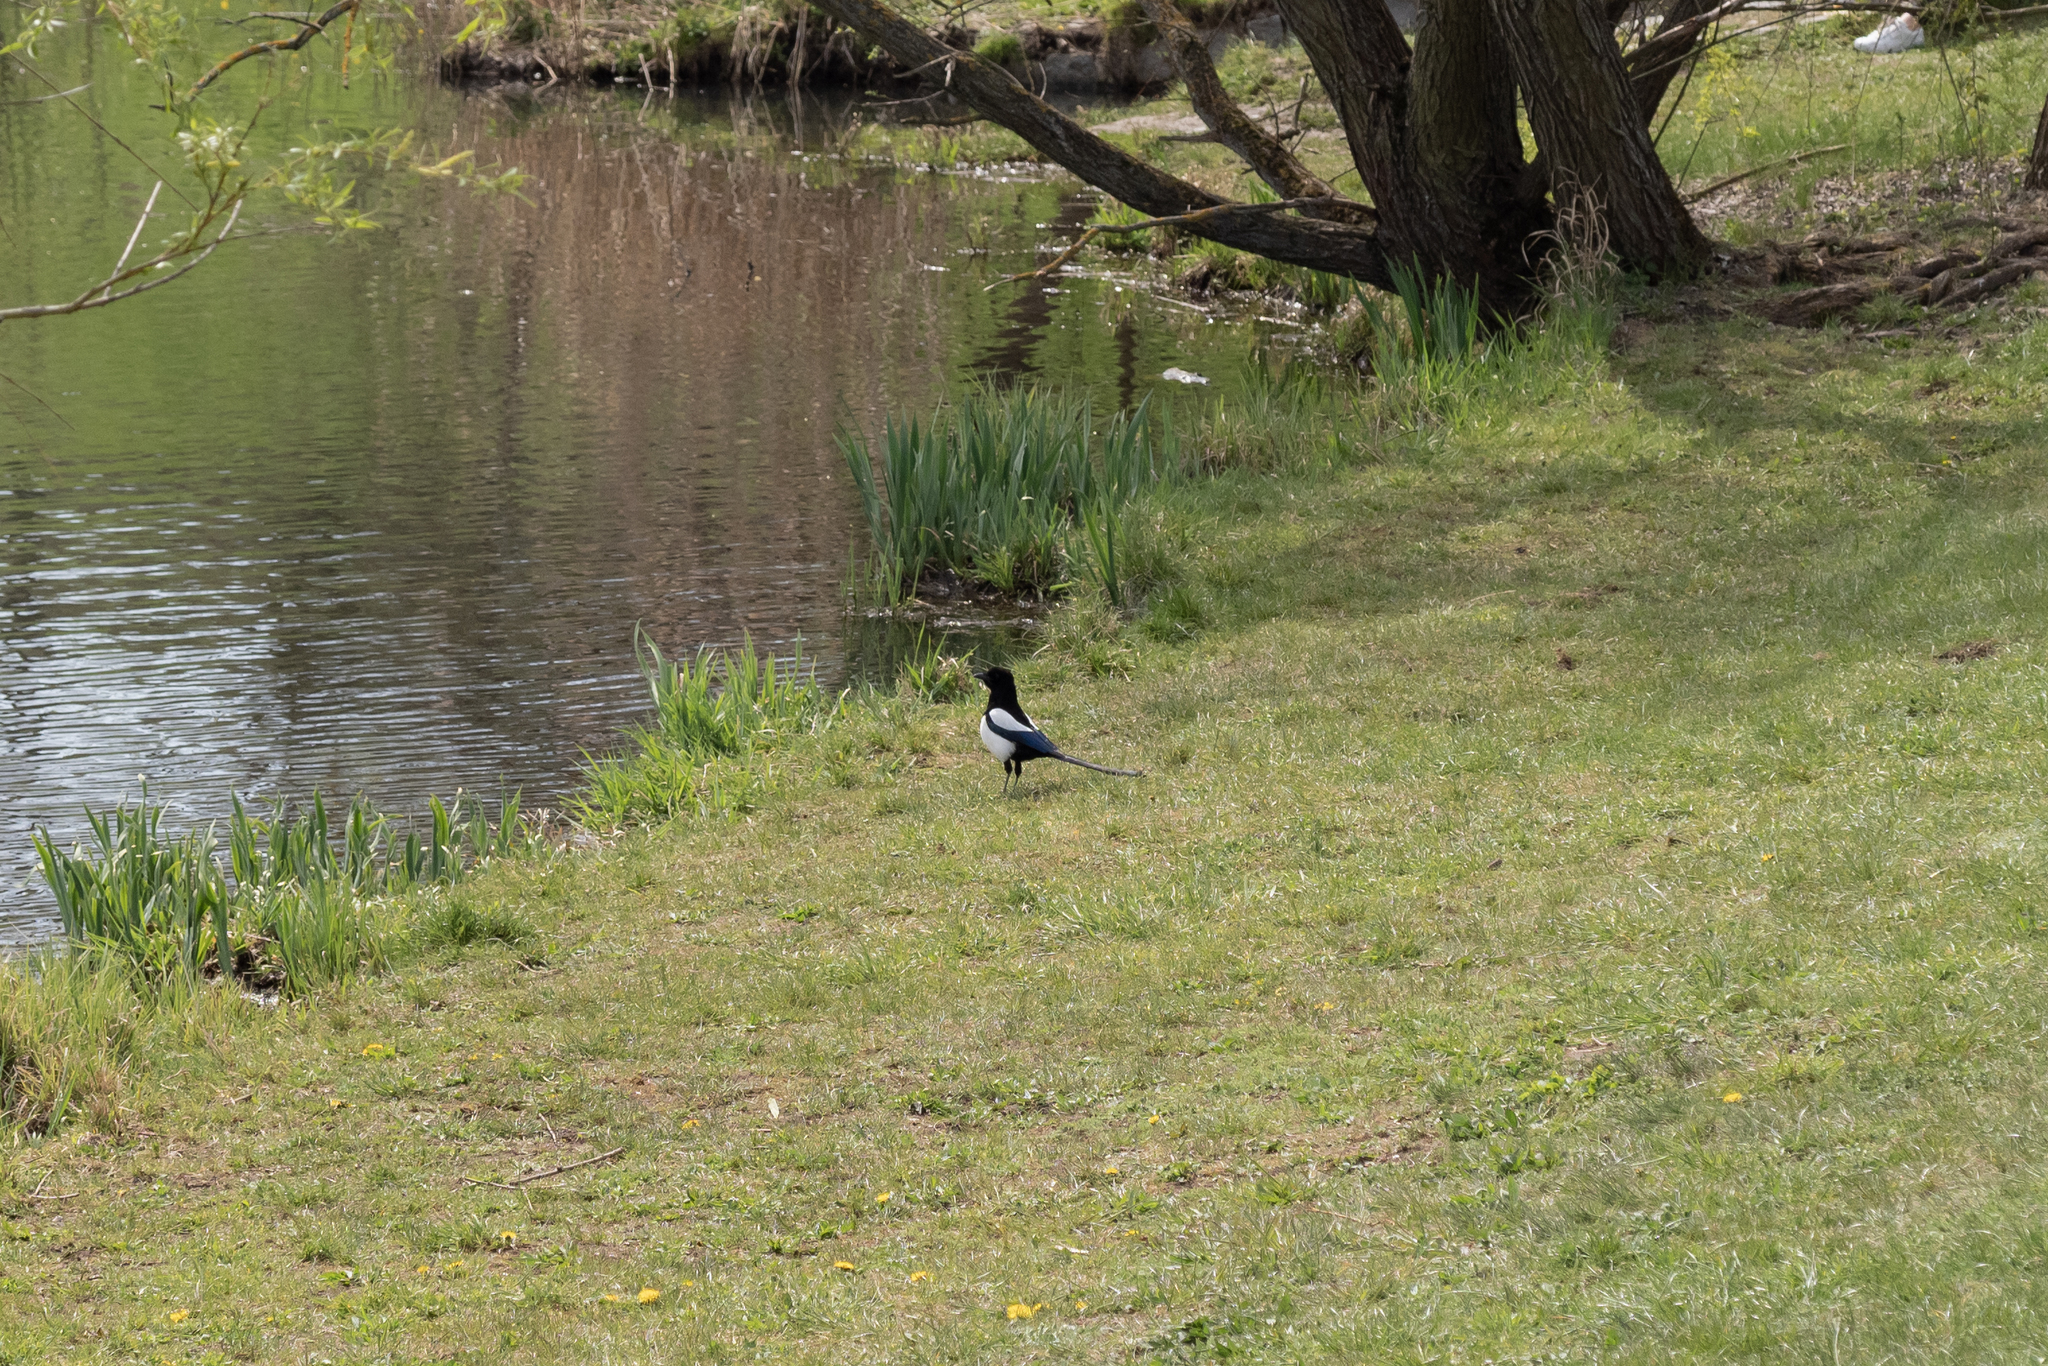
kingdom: Animalia
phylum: Chordata
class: Aves
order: Passeriformes
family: Corvidae
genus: Pica
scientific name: Pica pica
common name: Eurasian magpie
